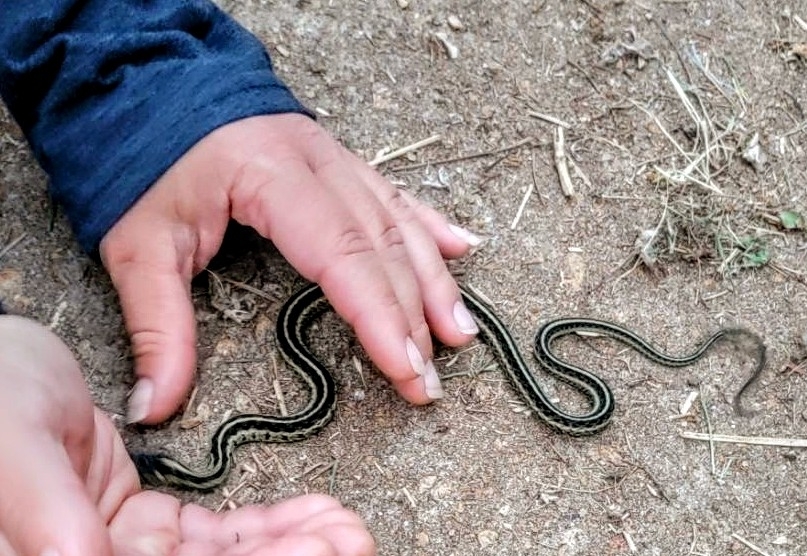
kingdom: Animalia
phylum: Chordata
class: Squamata
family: Colubridae
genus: Thamnophis
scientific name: Thamnophis sirtalis
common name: Common garter snake
